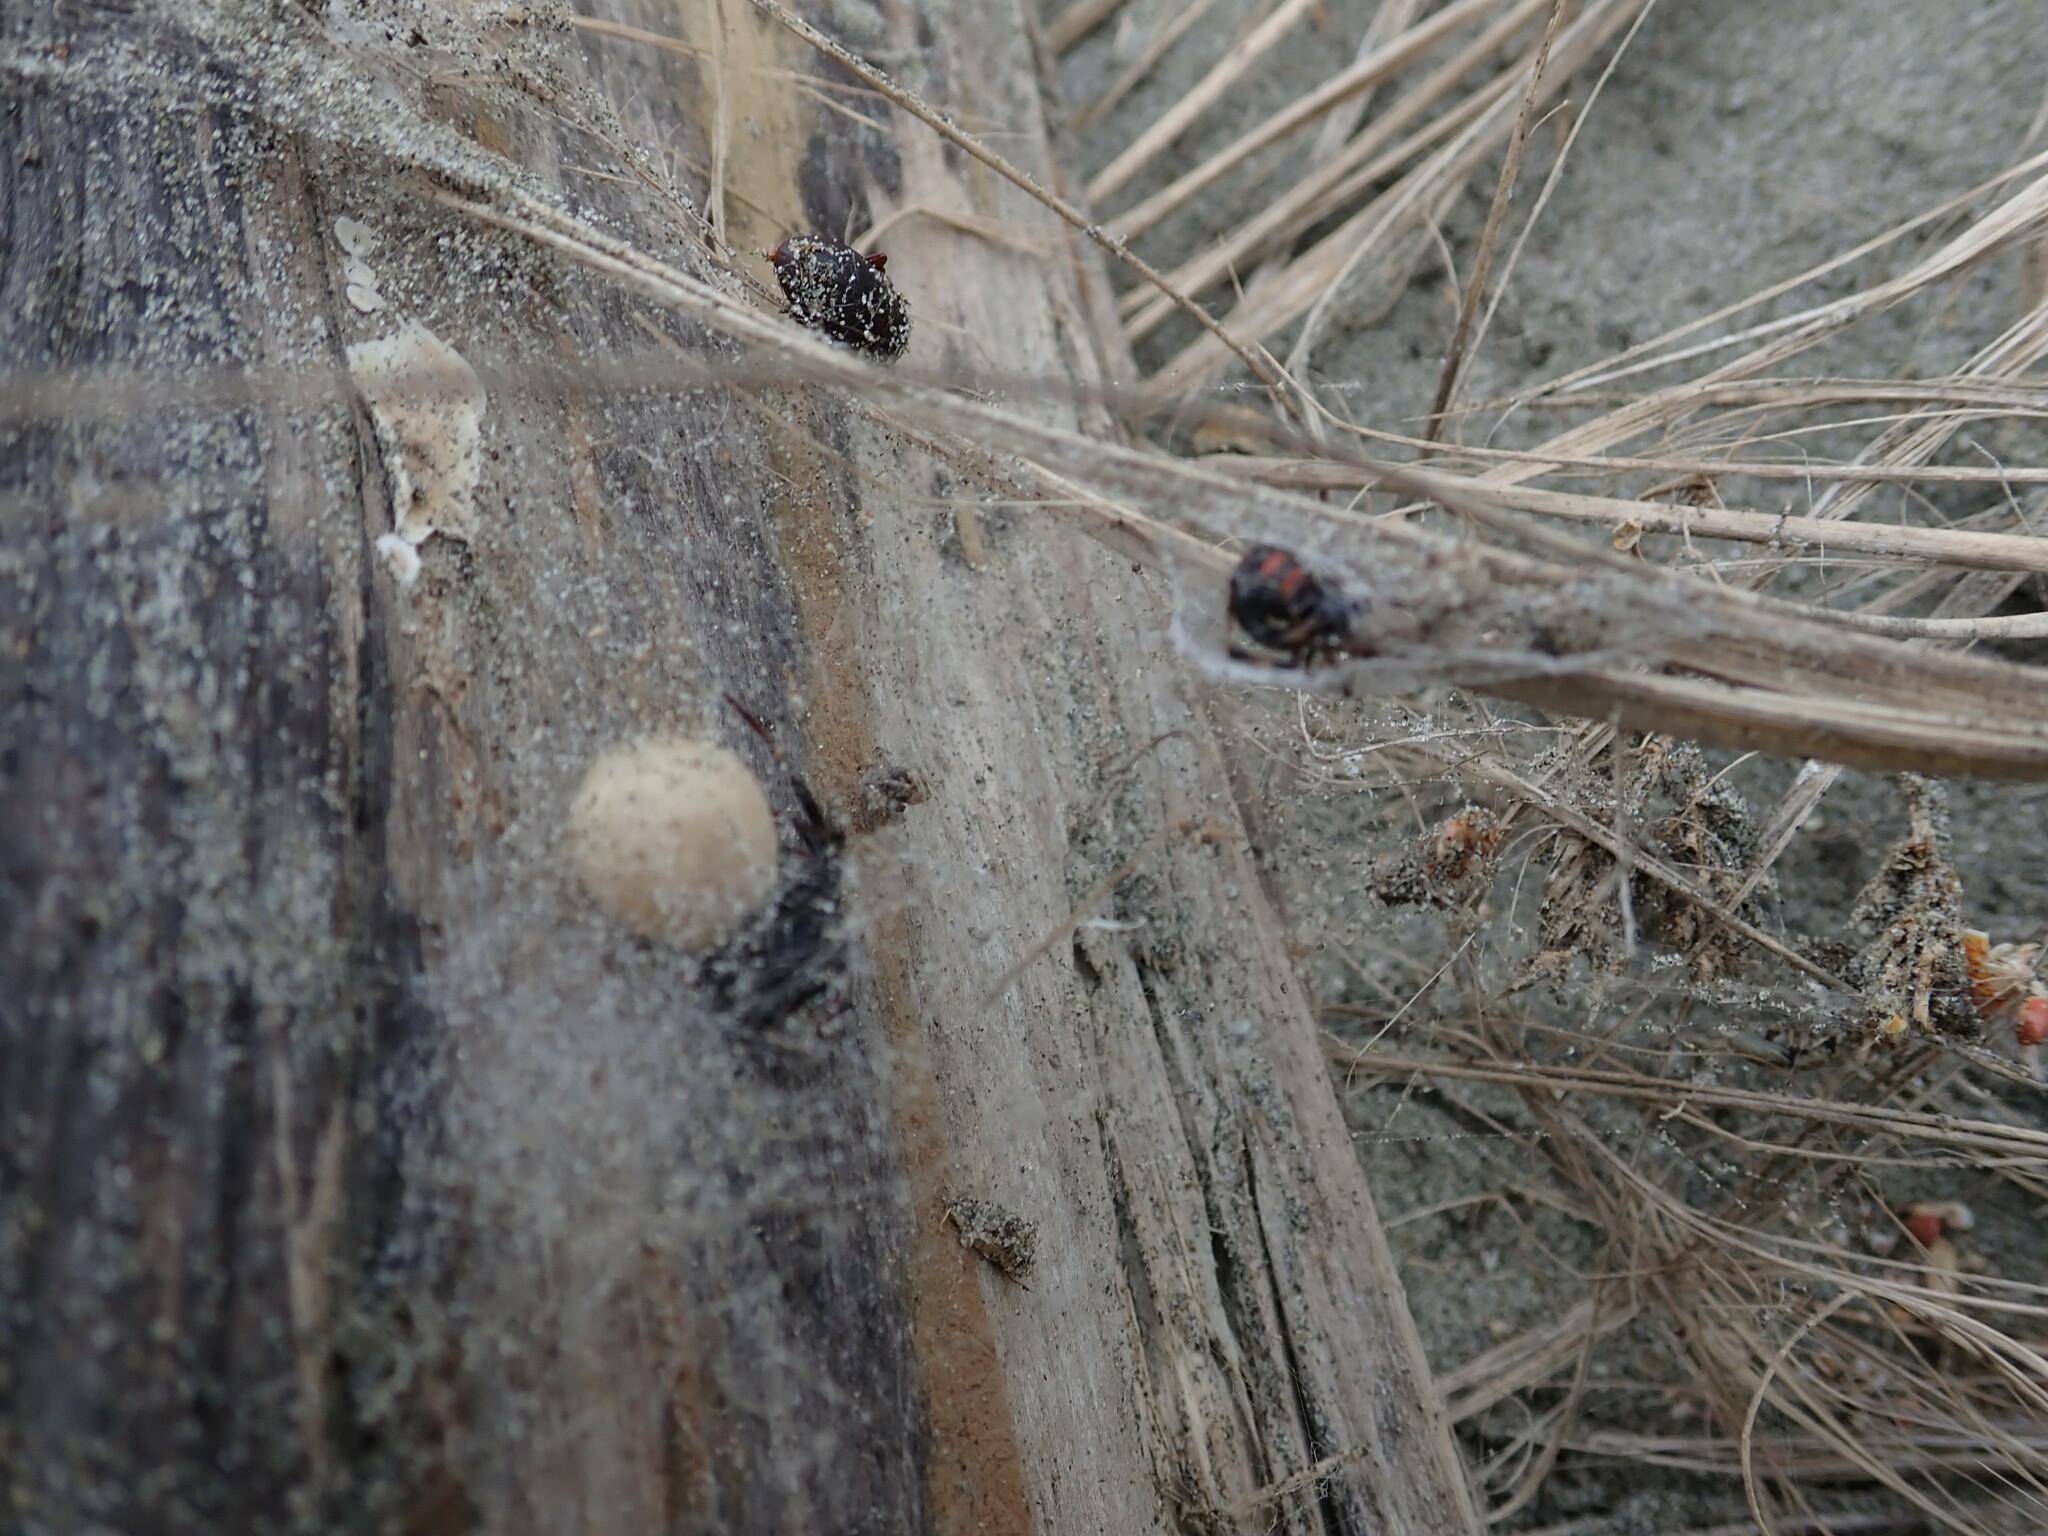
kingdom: Animalia
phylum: Arthropoda
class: Arachnida
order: Araneae
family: Theridiidae
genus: Latrodectus
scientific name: Latrodectus katipo
